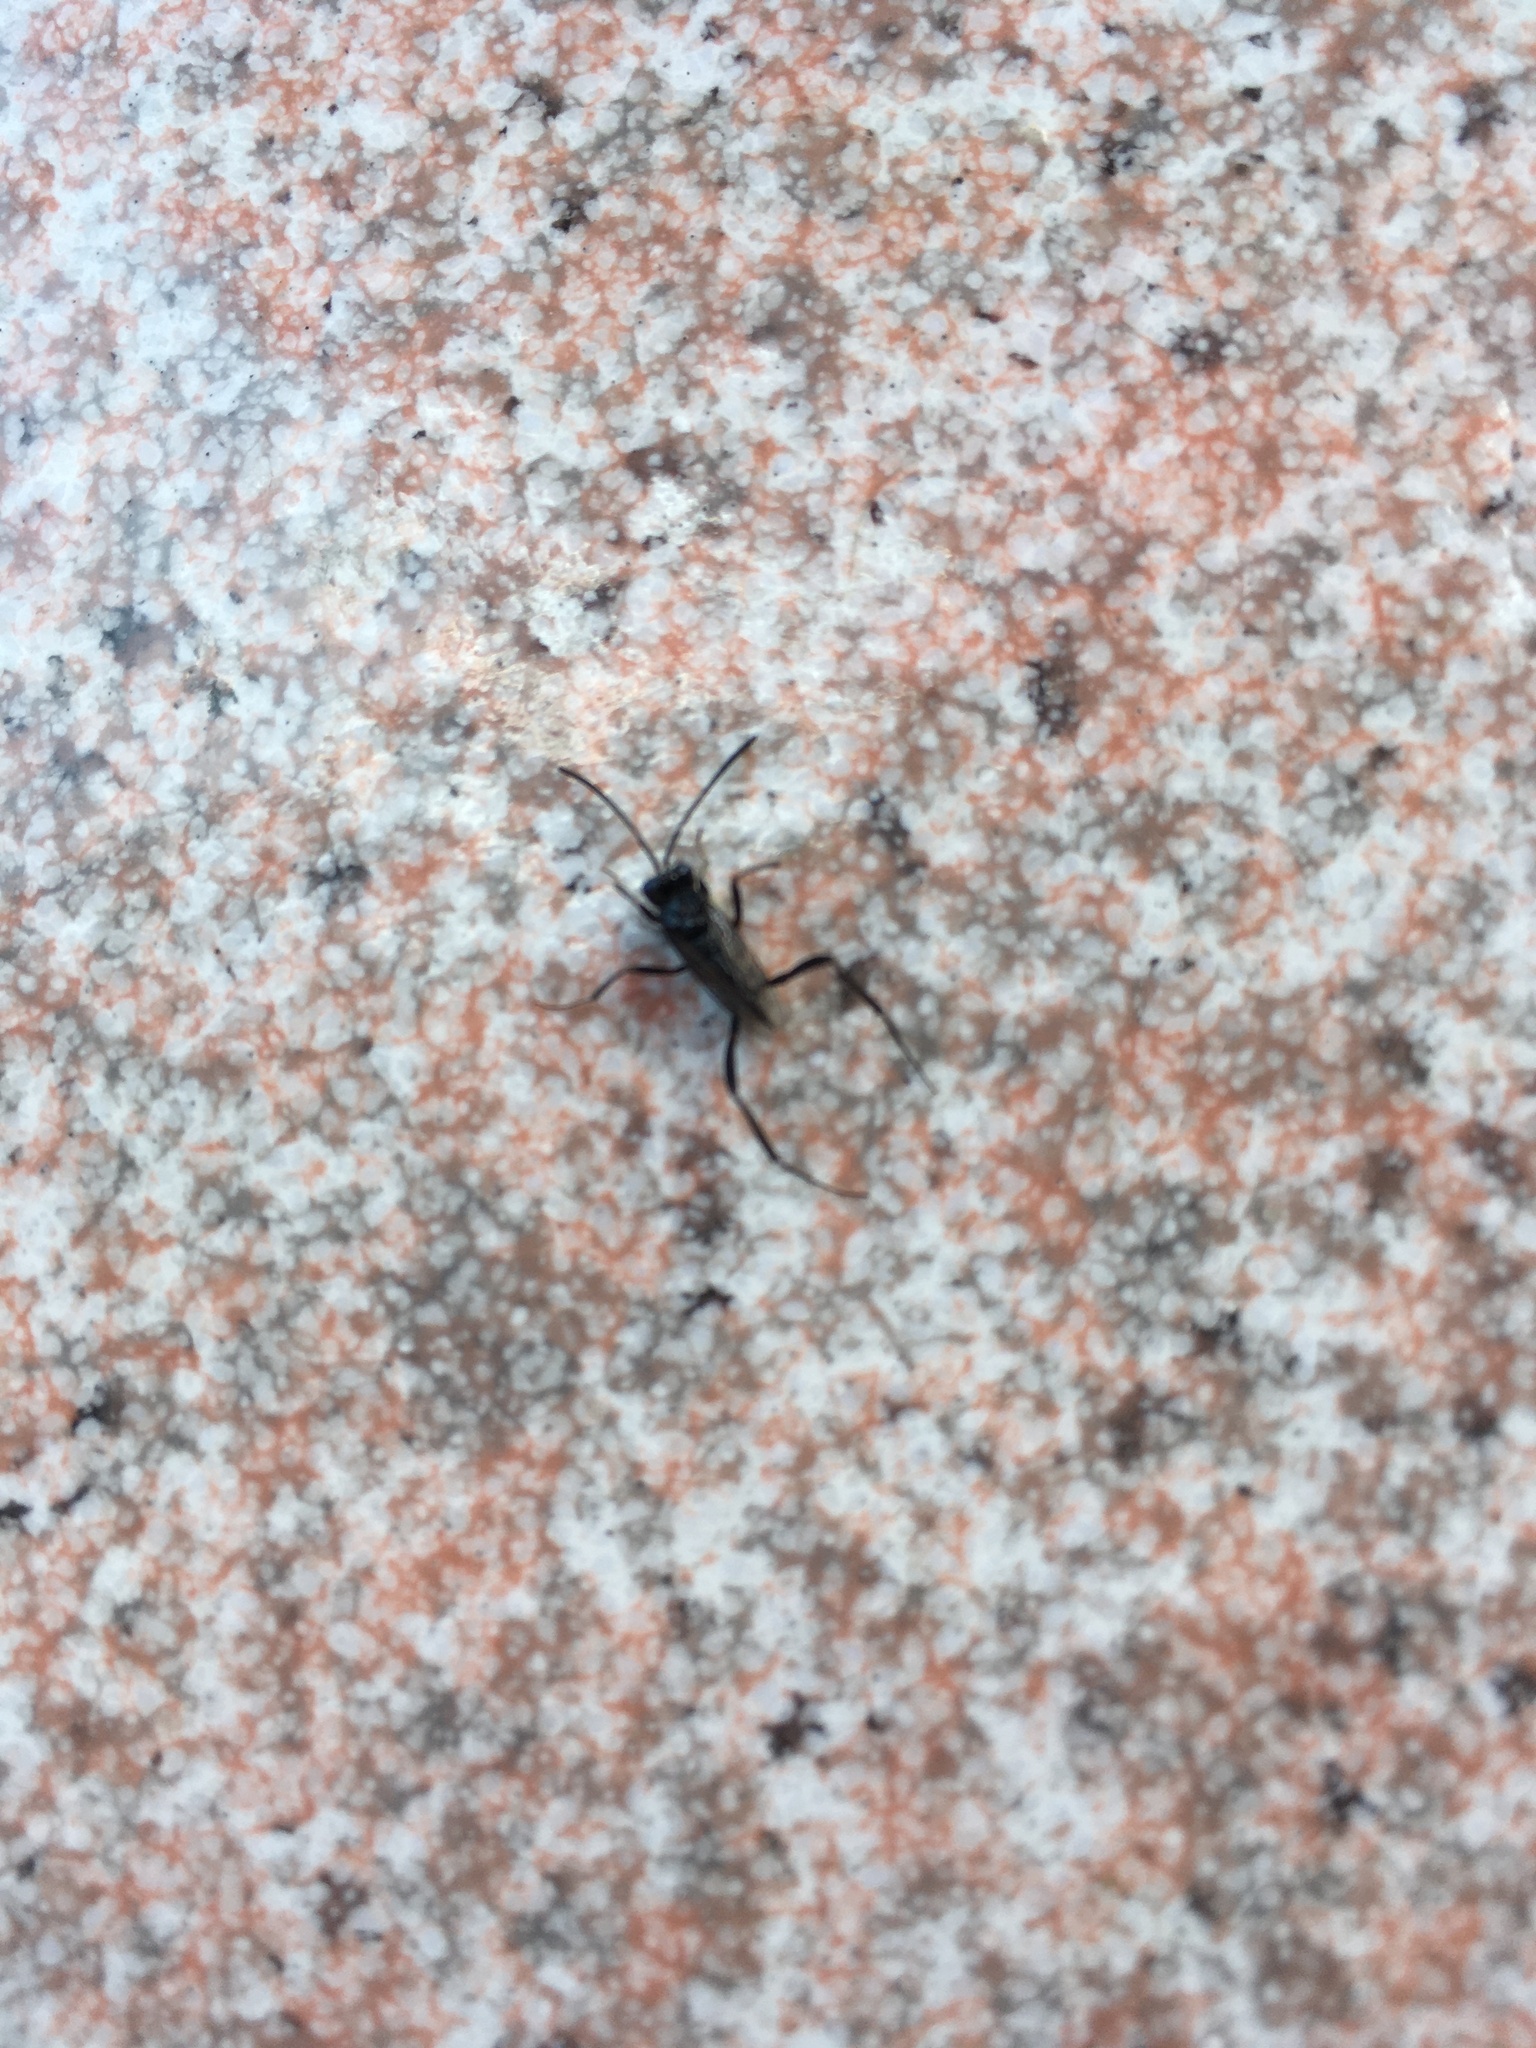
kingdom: Animalia
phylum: Arthropoda
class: Insecta
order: Hymenoptera
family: Evaniidae
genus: Evania
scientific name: Evania appendigaster
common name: Ensign wasp
